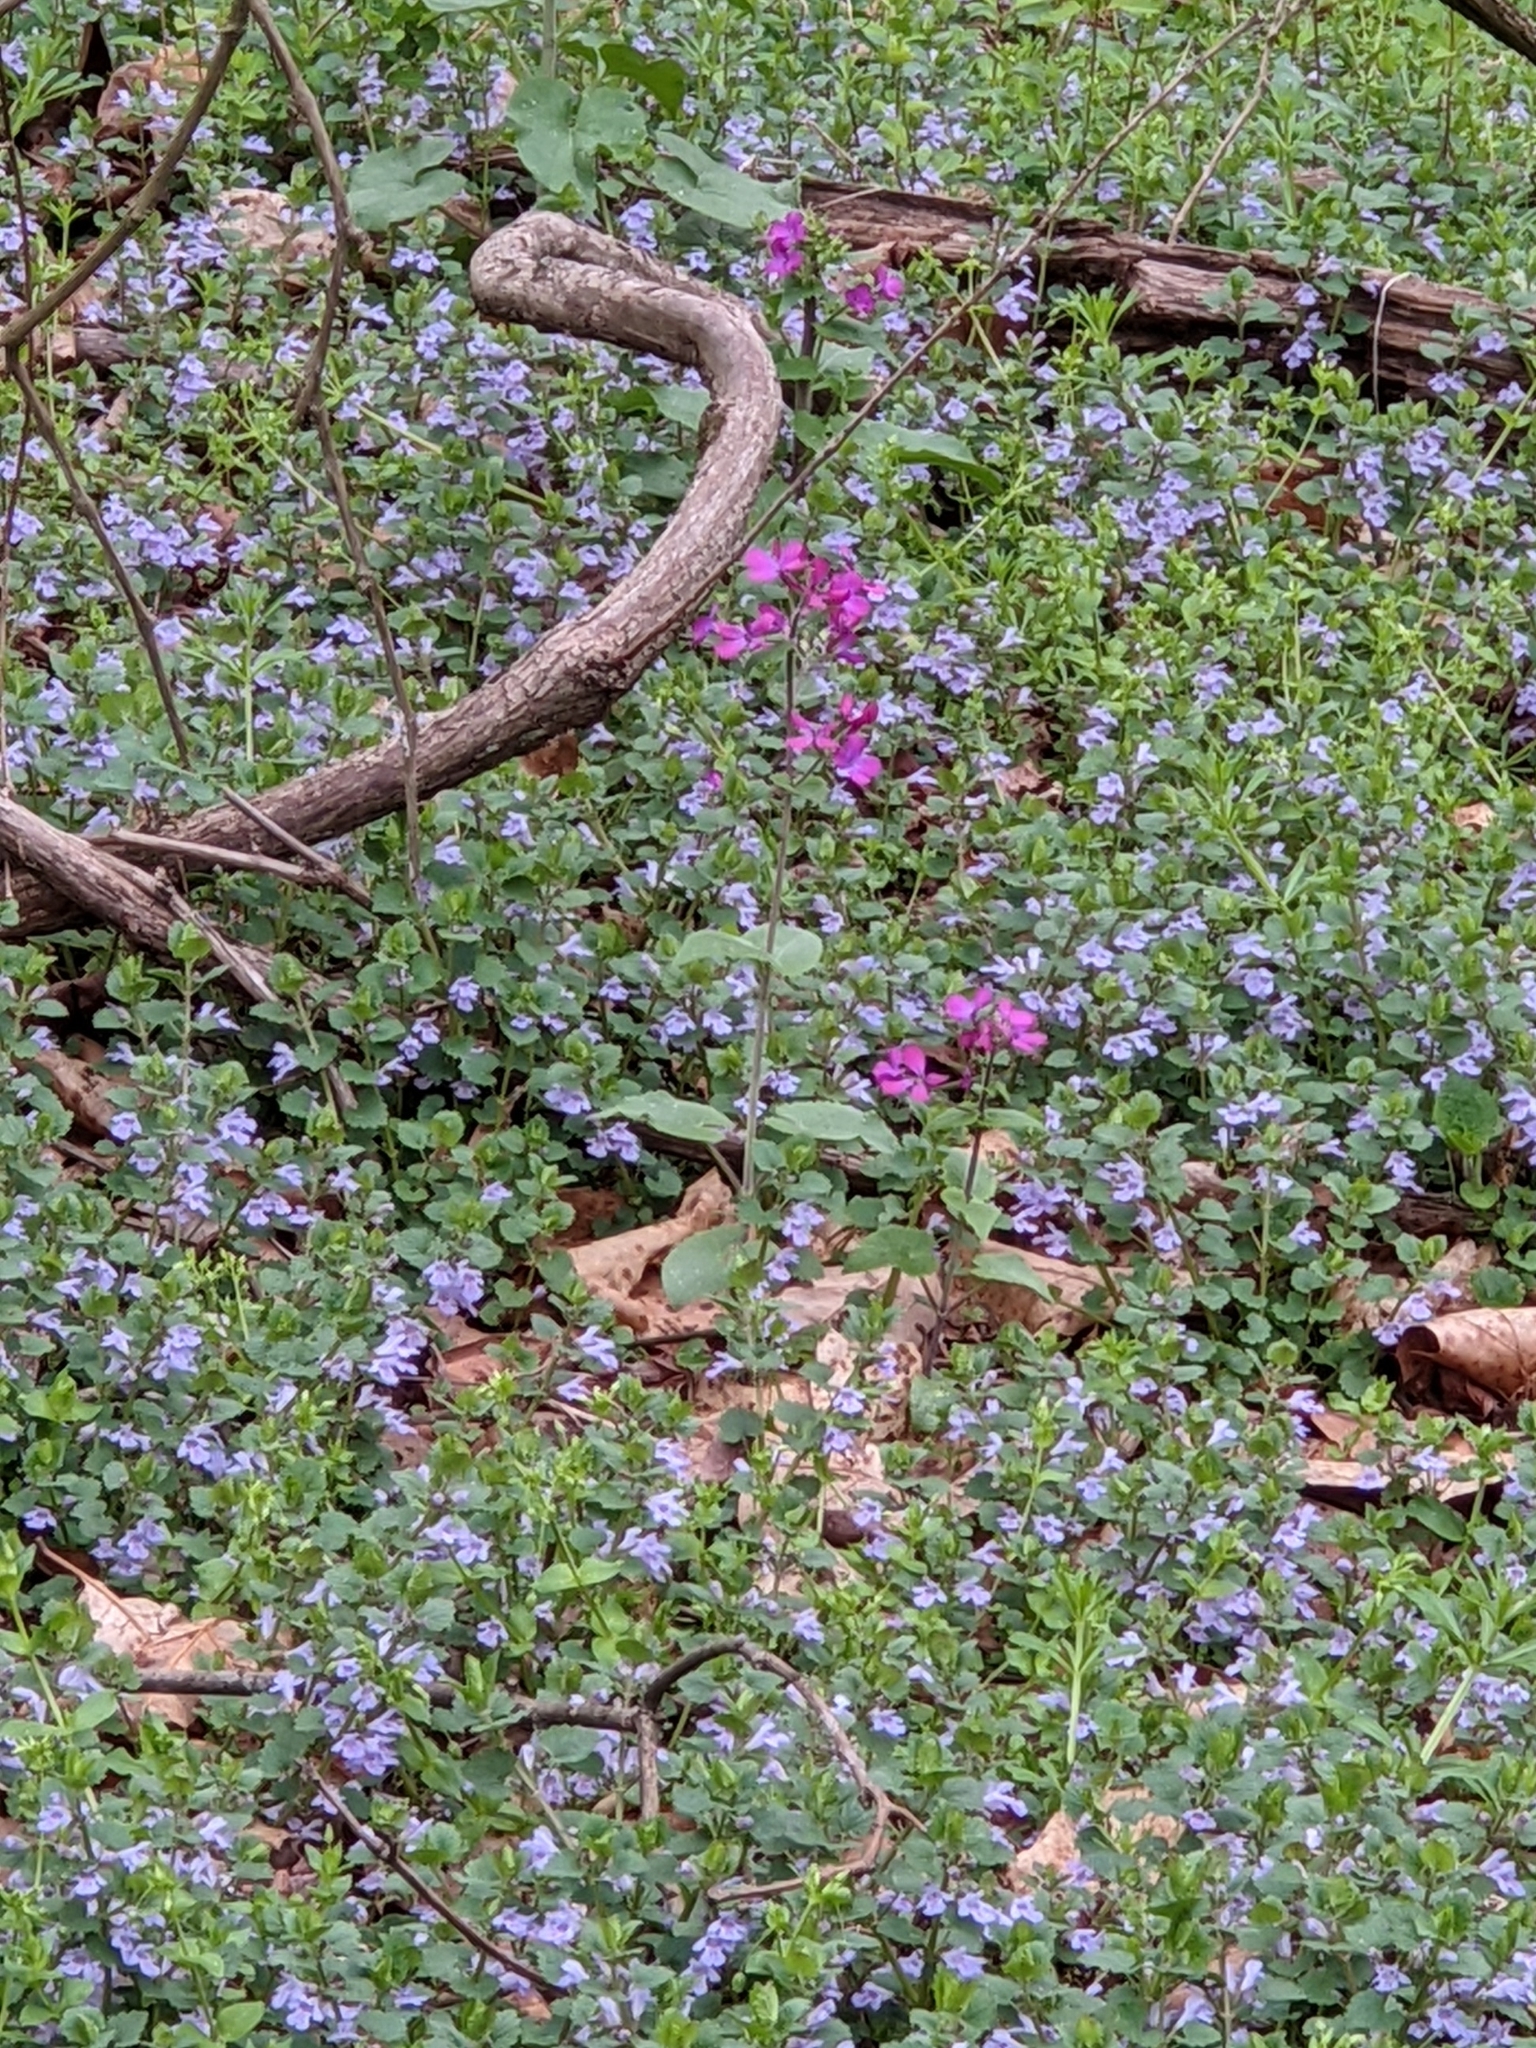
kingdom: Plantae
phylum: Tracheophyta
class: Magnoliopsida
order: Brassicales
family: Brassicaceae
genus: Lunaria
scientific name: Lunaria annua
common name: Honesty
